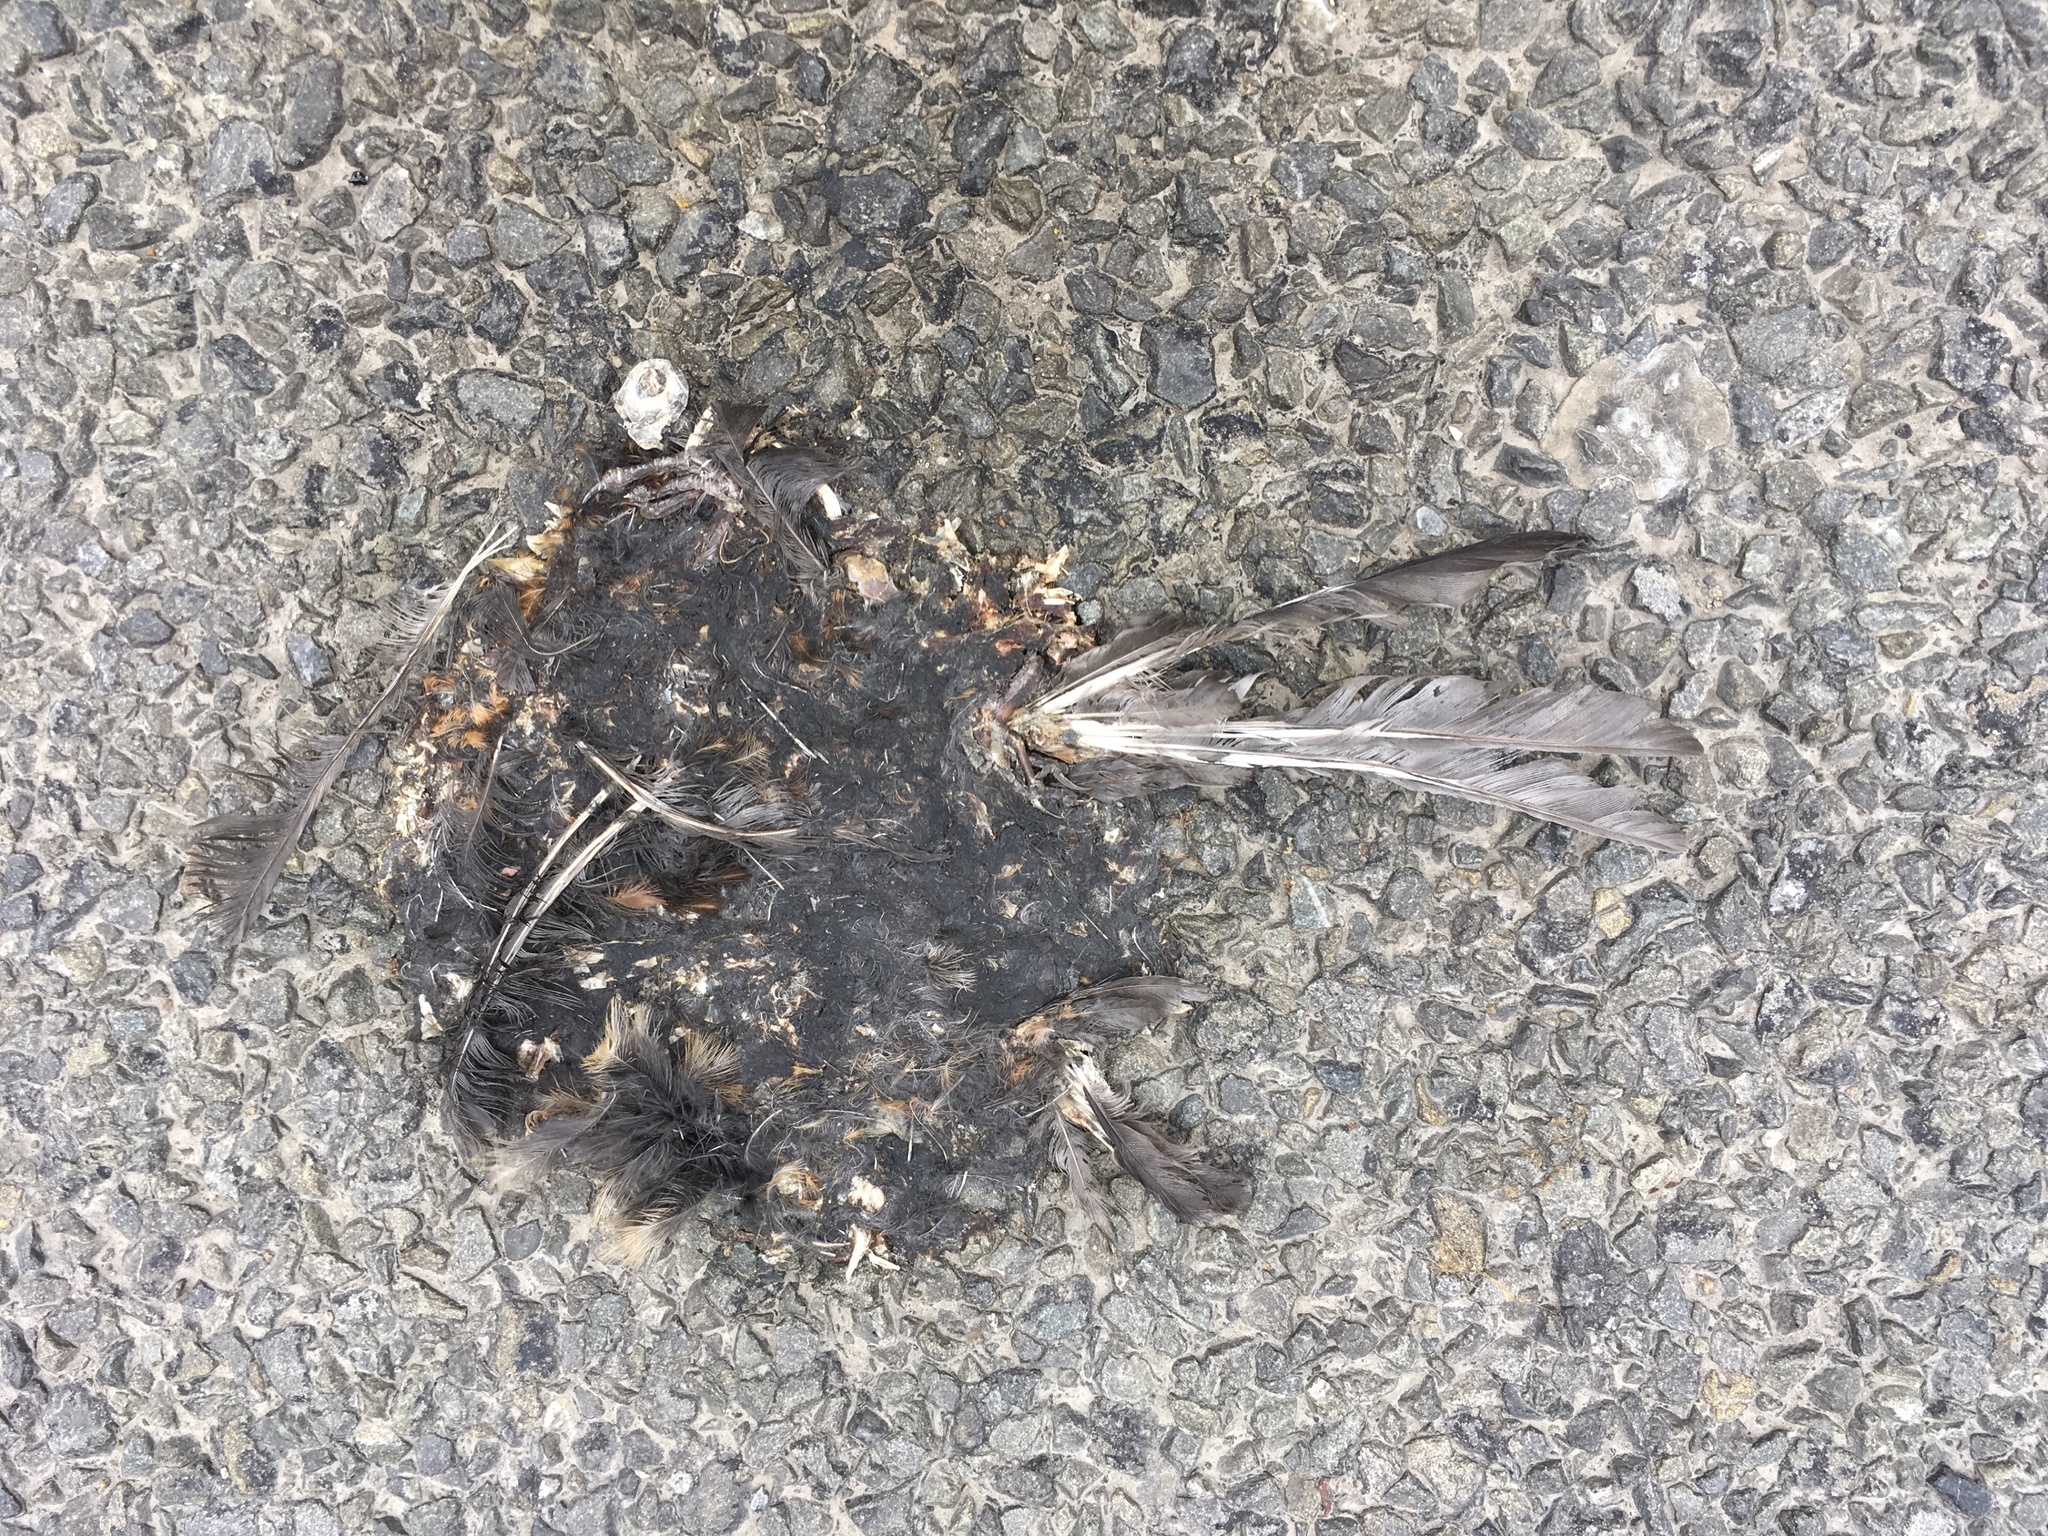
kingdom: Animalia
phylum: Chordata
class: Aves
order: Passeriformes
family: Turdidae
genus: Turdus
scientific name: Turdus merula
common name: Common blackbird
